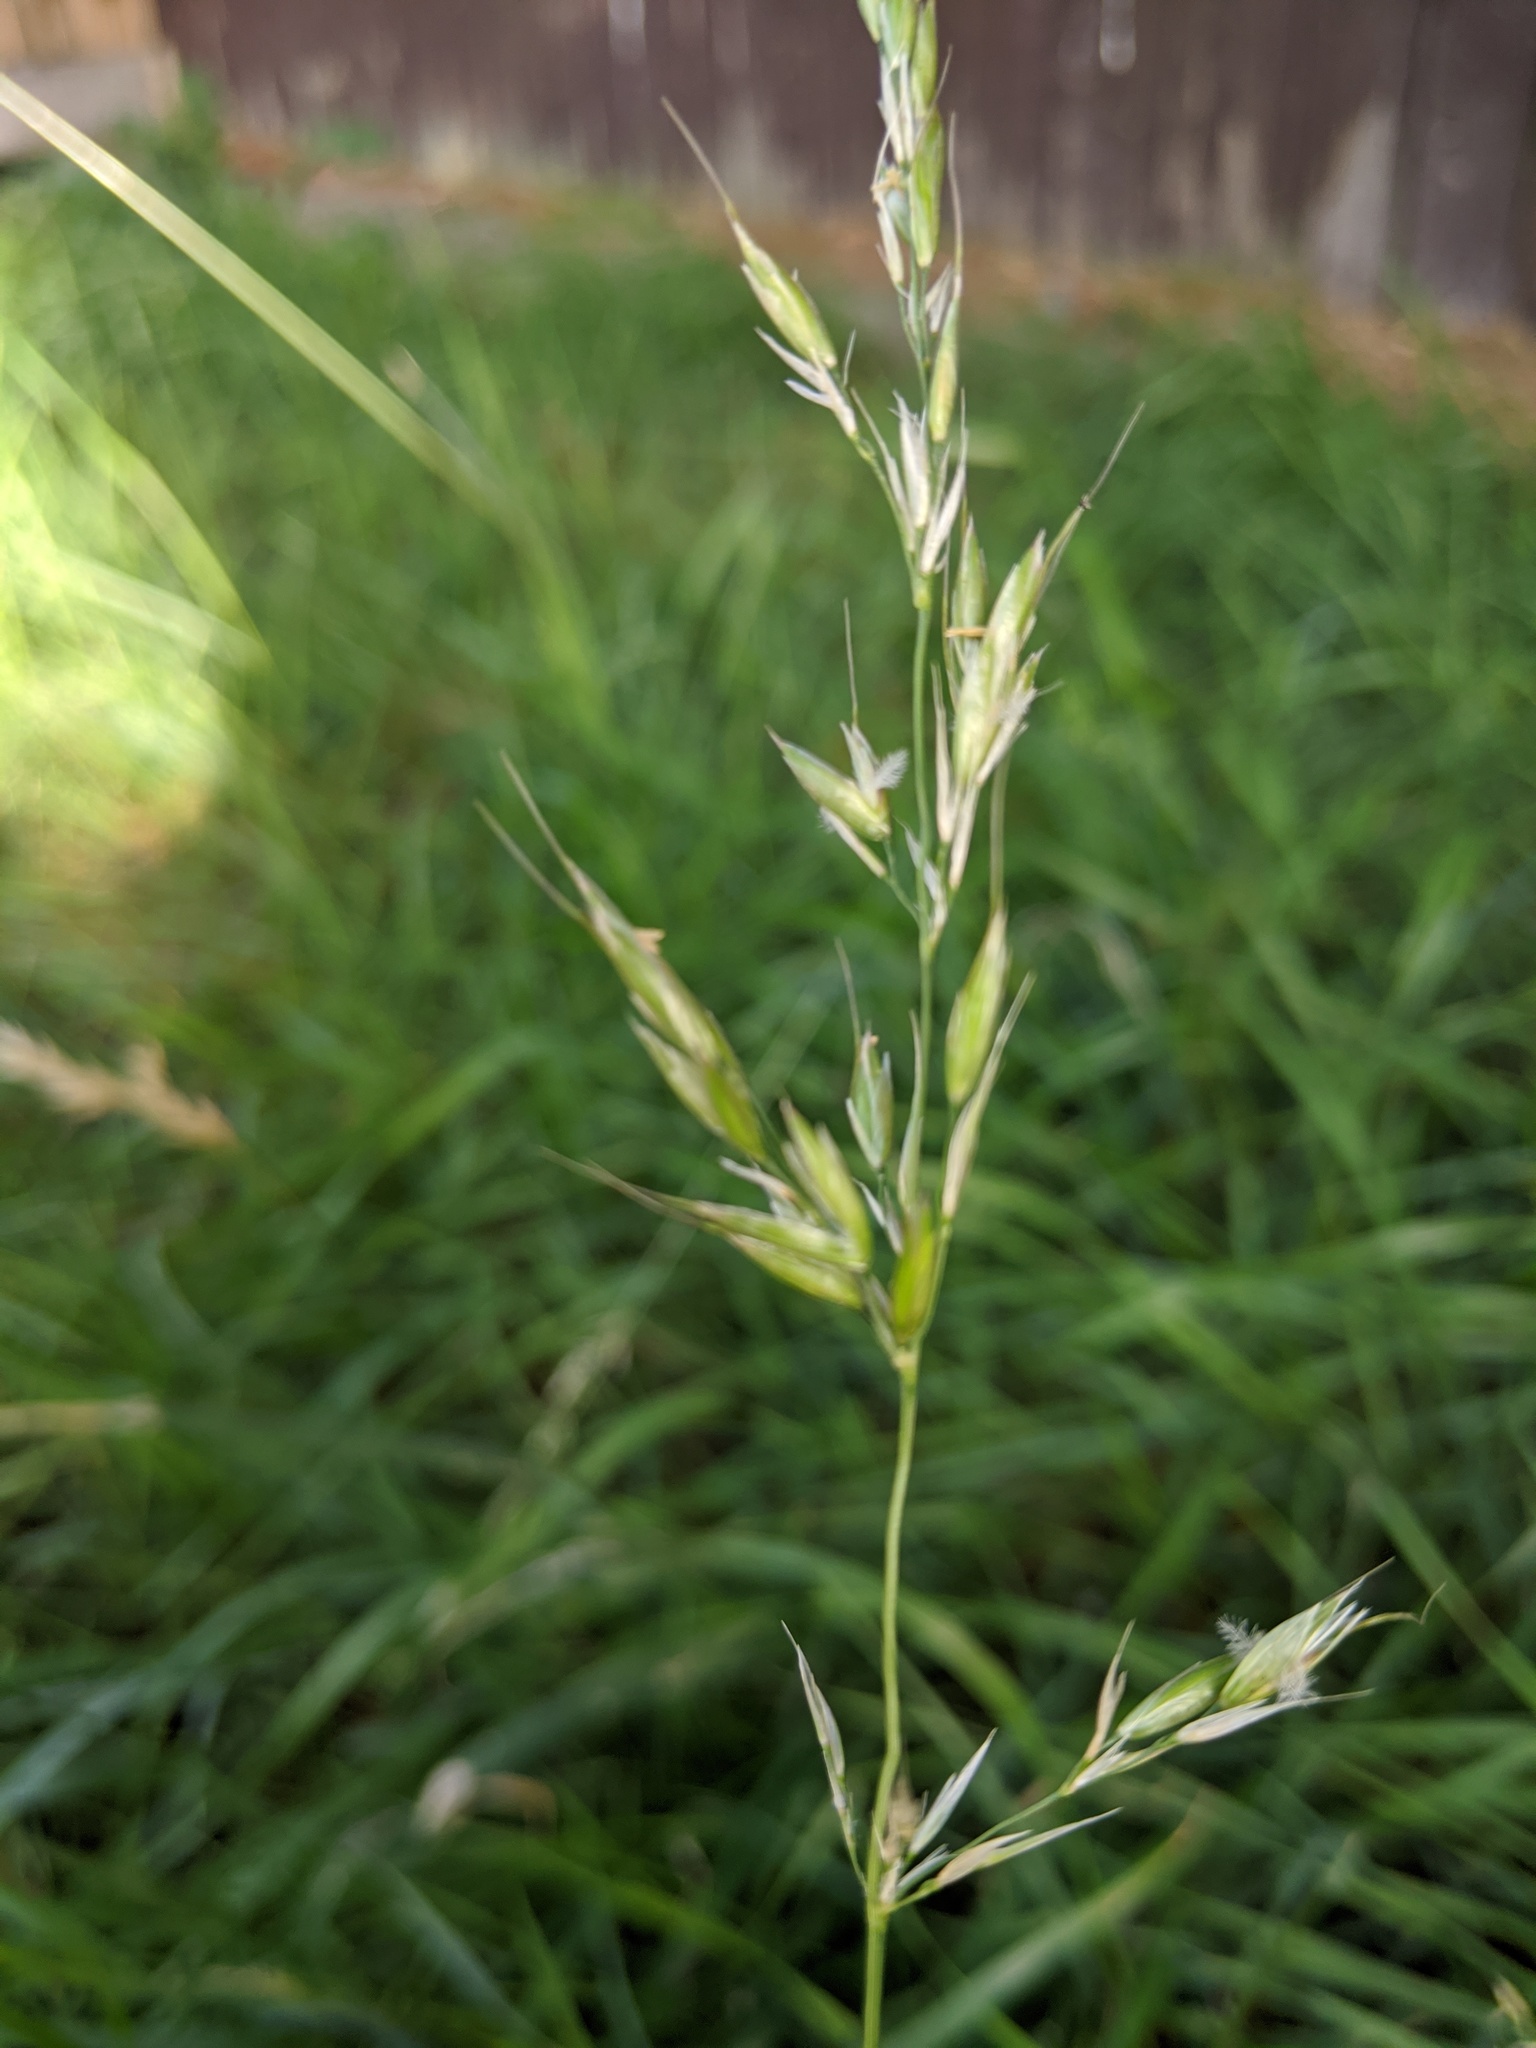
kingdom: Plantae
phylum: Tracheophyta
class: Liliopsida
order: Poales
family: Poaceae
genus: Arrhenatherum
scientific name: Arrhenatherum elatius
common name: Tall oatgrass
